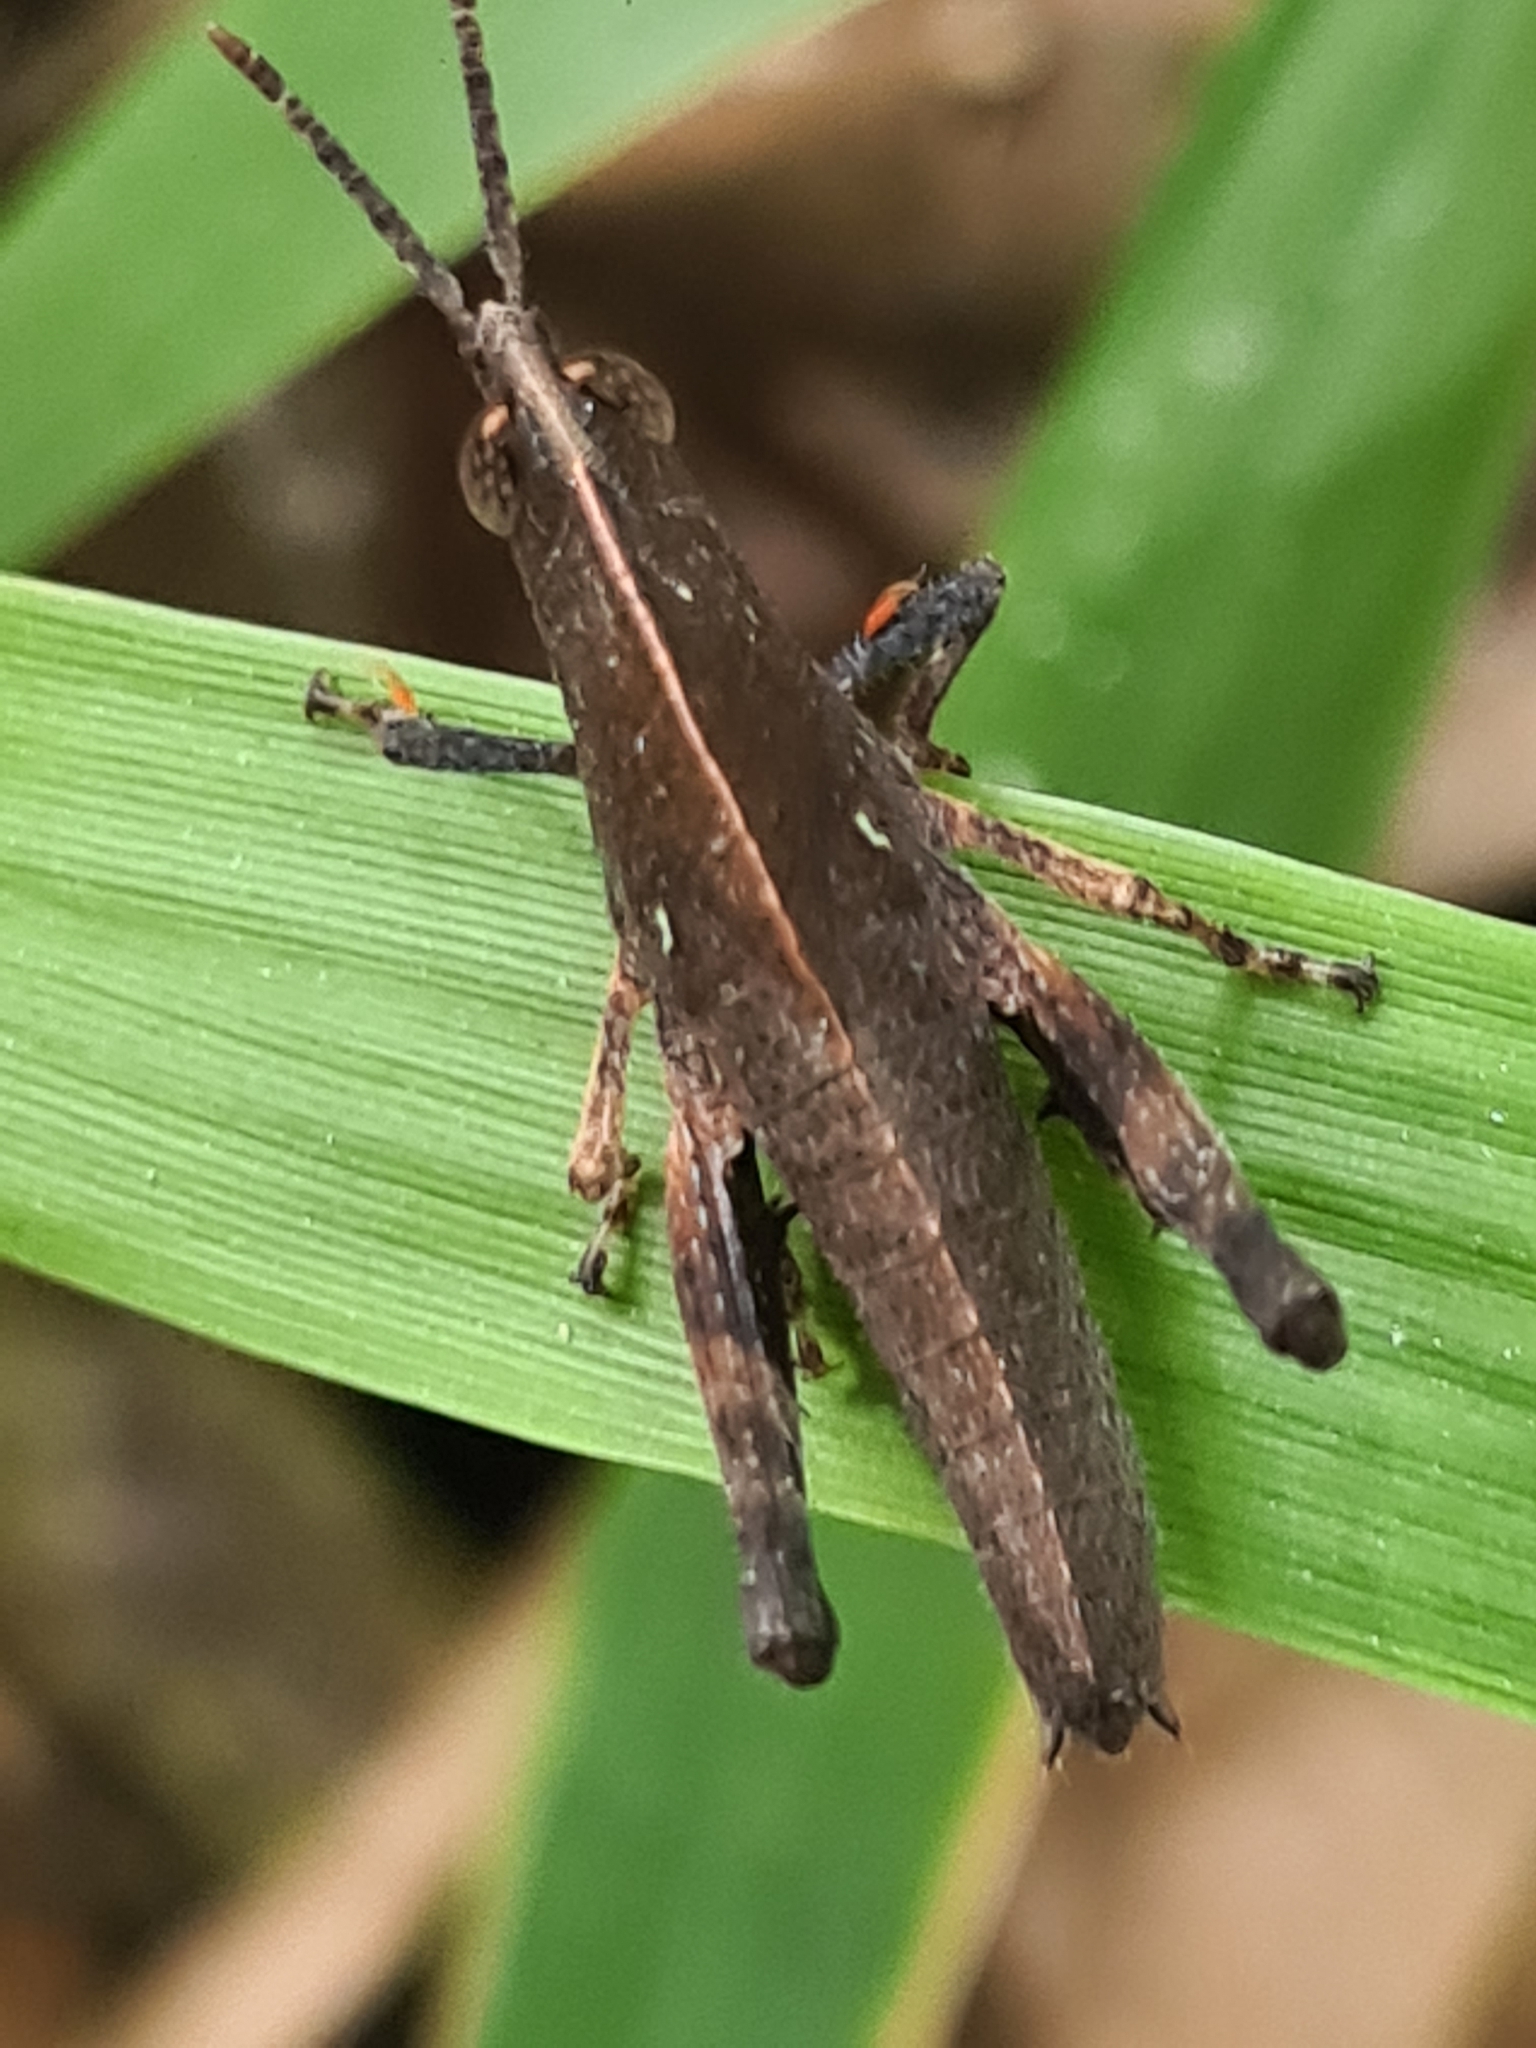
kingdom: Animalia
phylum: Arthropoda
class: Insecta
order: Orthoptera
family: Romaleidae
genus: Colpolopha
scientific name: Colpolopha obsoleta
